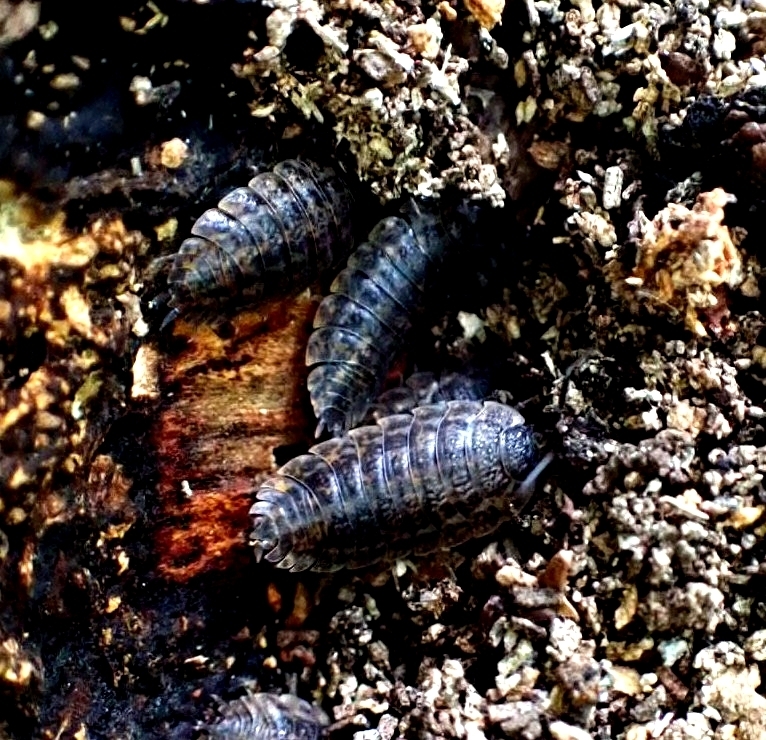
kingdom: Animalia
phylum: Arthropoda
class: Malacostraca
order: Isopoda
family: Trachelipodidae
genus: Trachelipus
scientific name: Trachelipus rathkii
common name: Isopod
